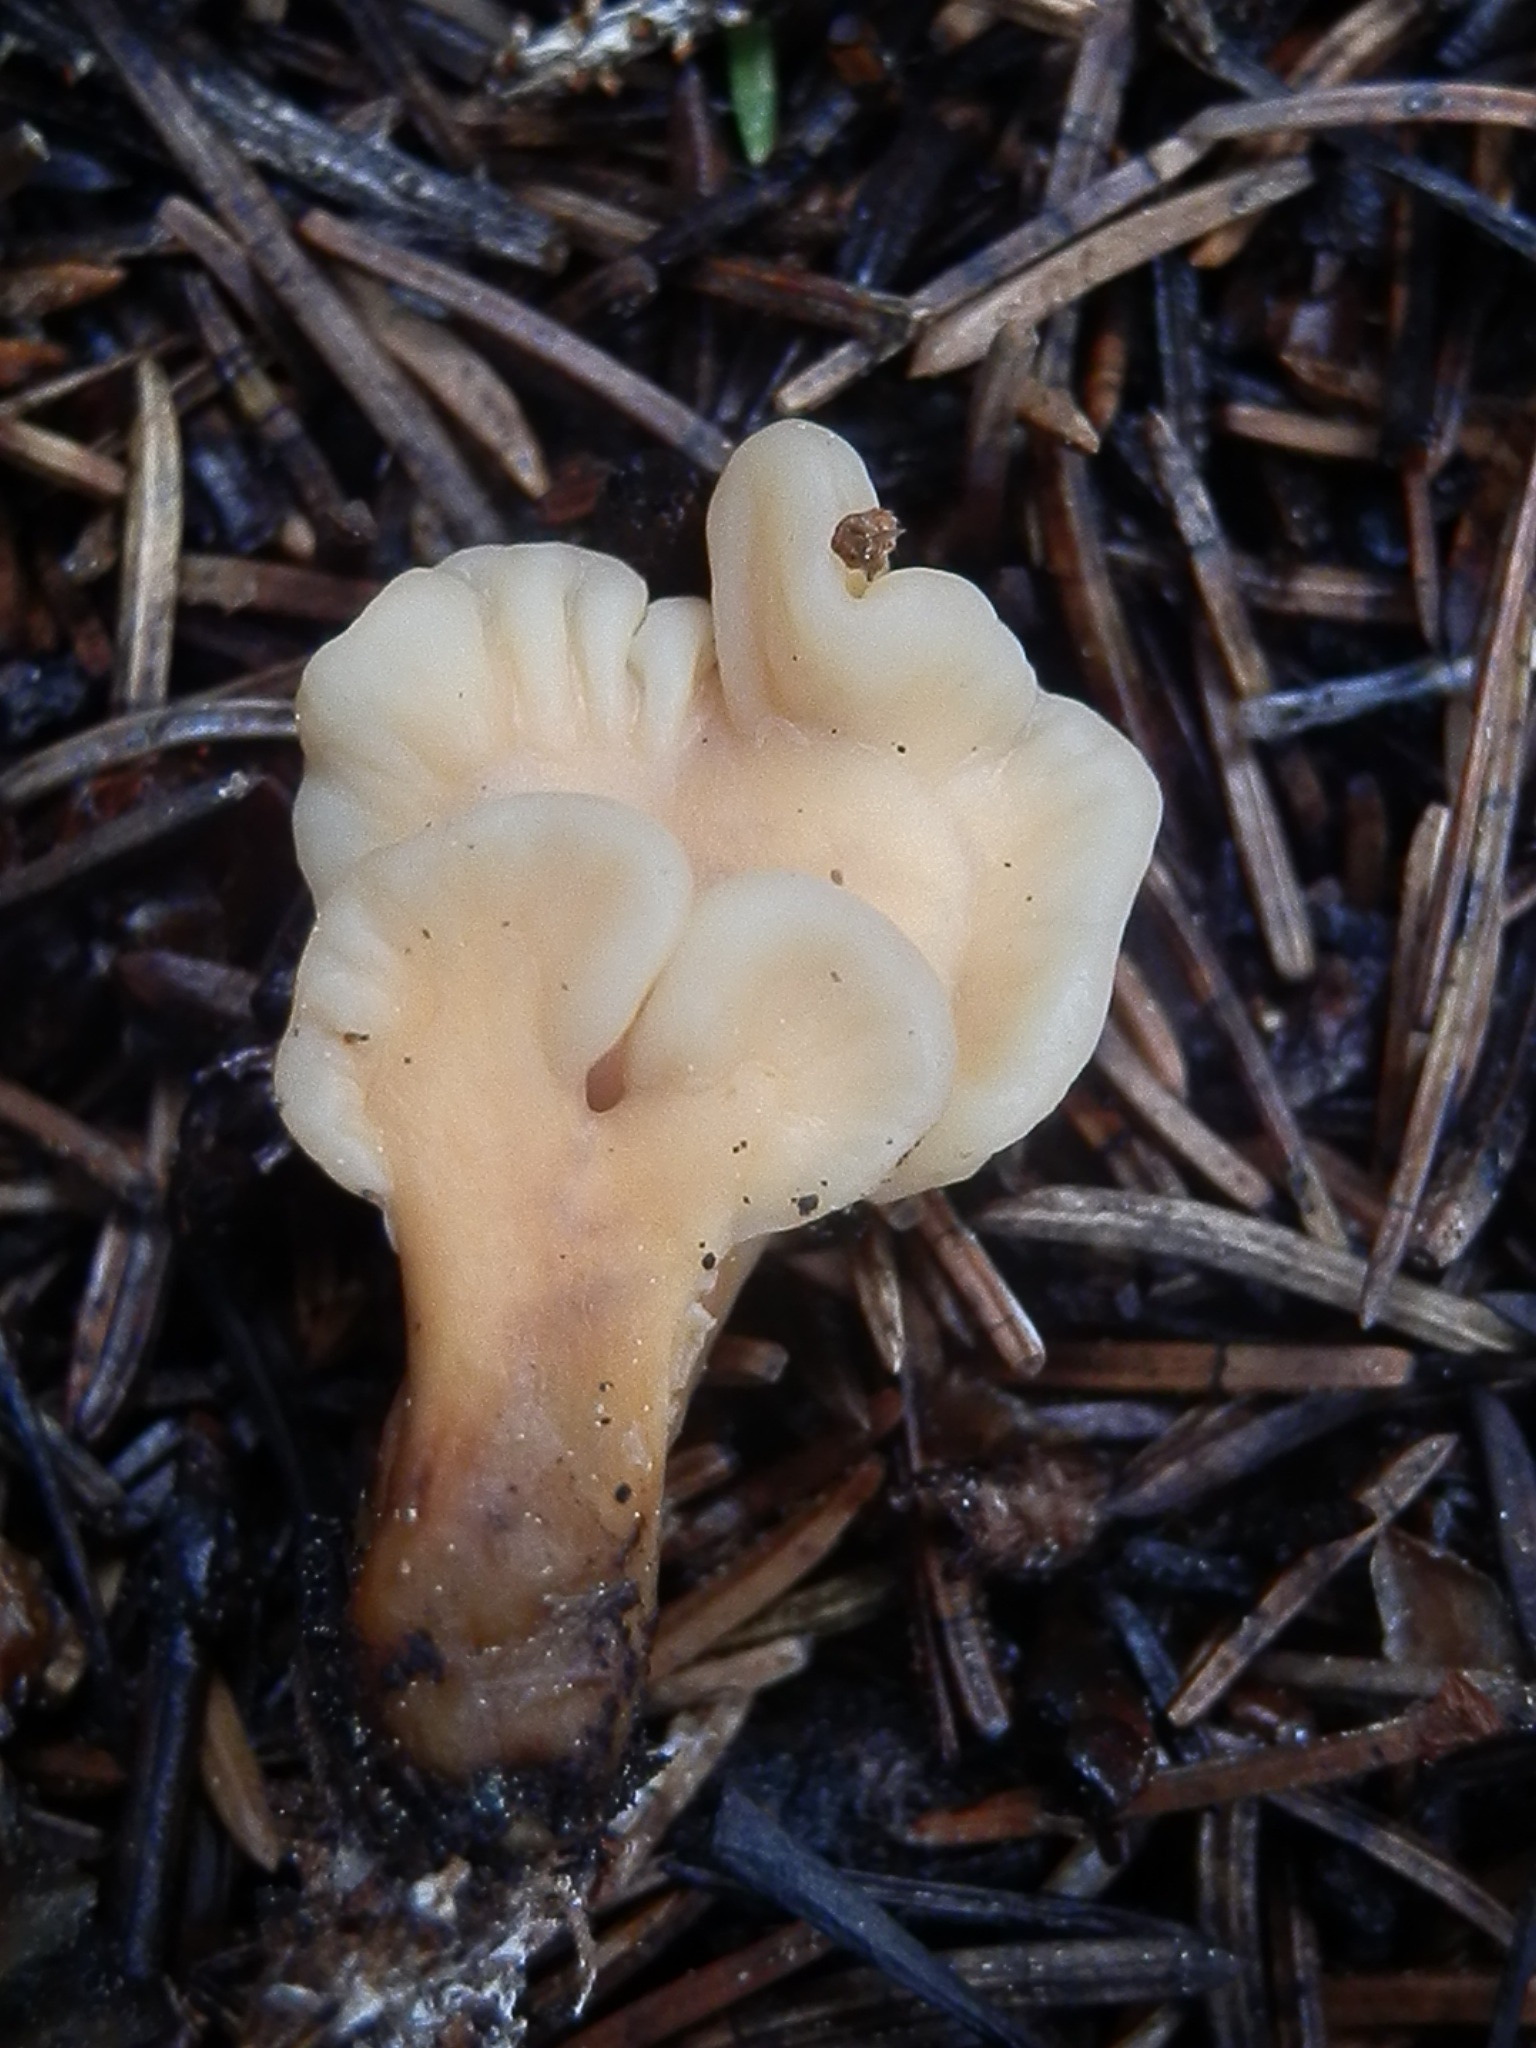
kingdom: Fungi
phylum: Ascomycota
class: Leotiomycetes
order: Rhytismatales
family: Cudoniaceae
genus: Spathularia
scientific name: Spathularia rufa
